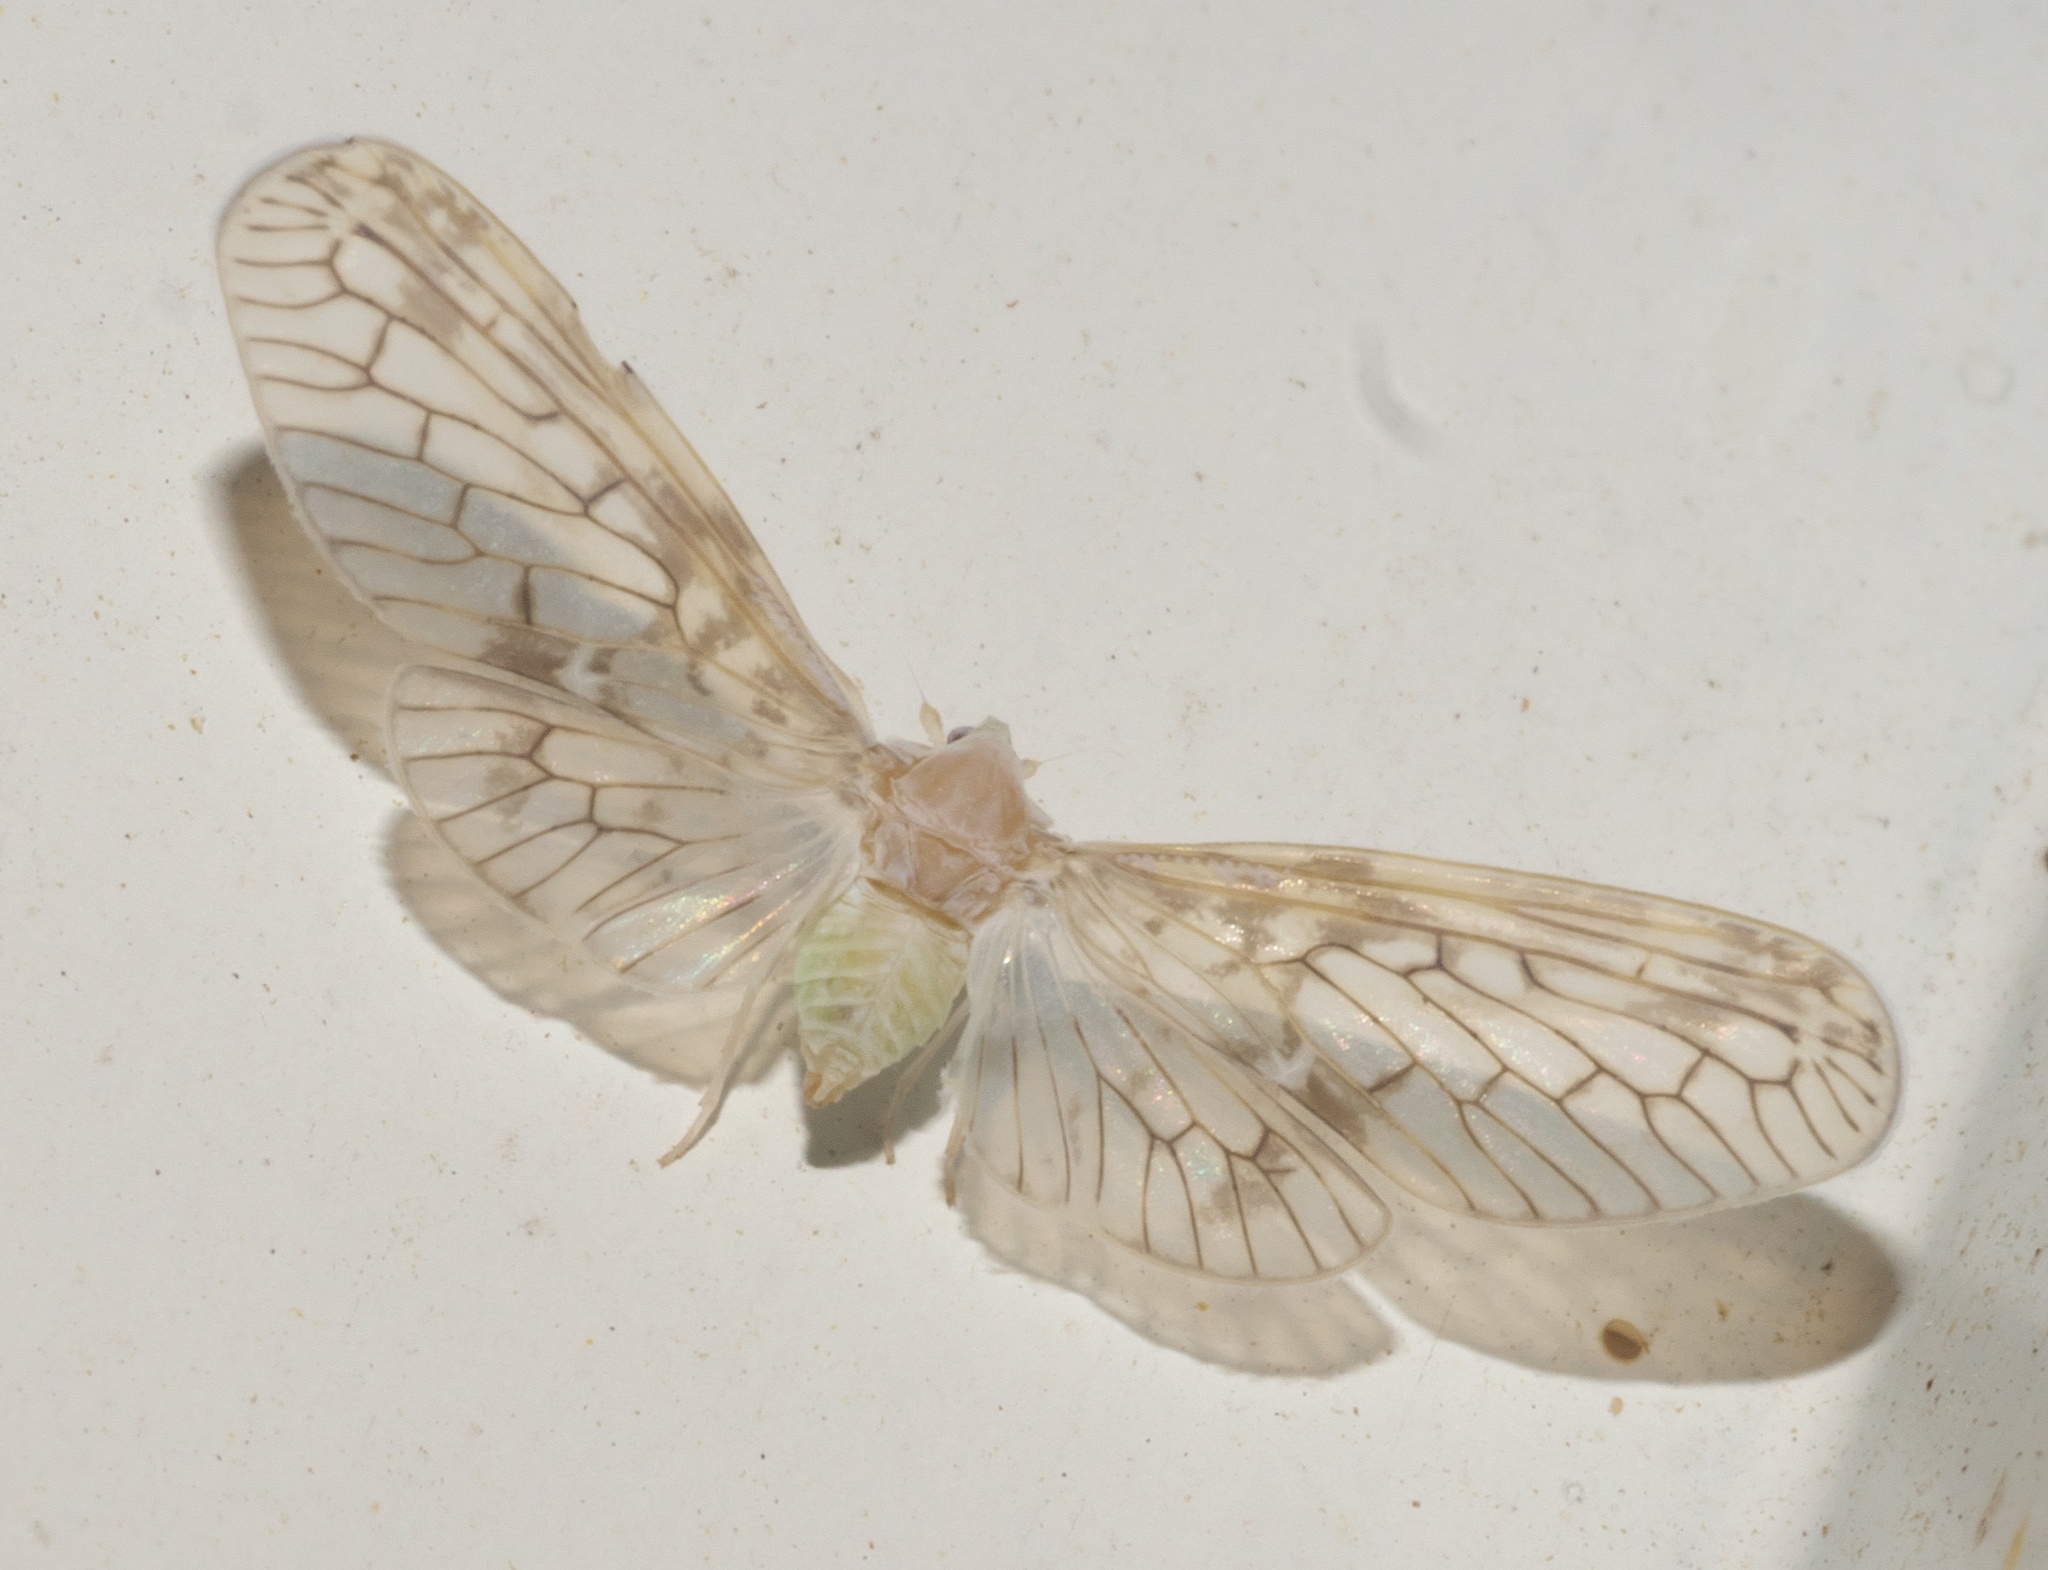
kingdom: Animalia
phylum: Arthropoda
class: Insecta
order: Hemiptera
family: Derbidae
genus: Paramysidia
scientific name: Paramysidia mississippiensis
